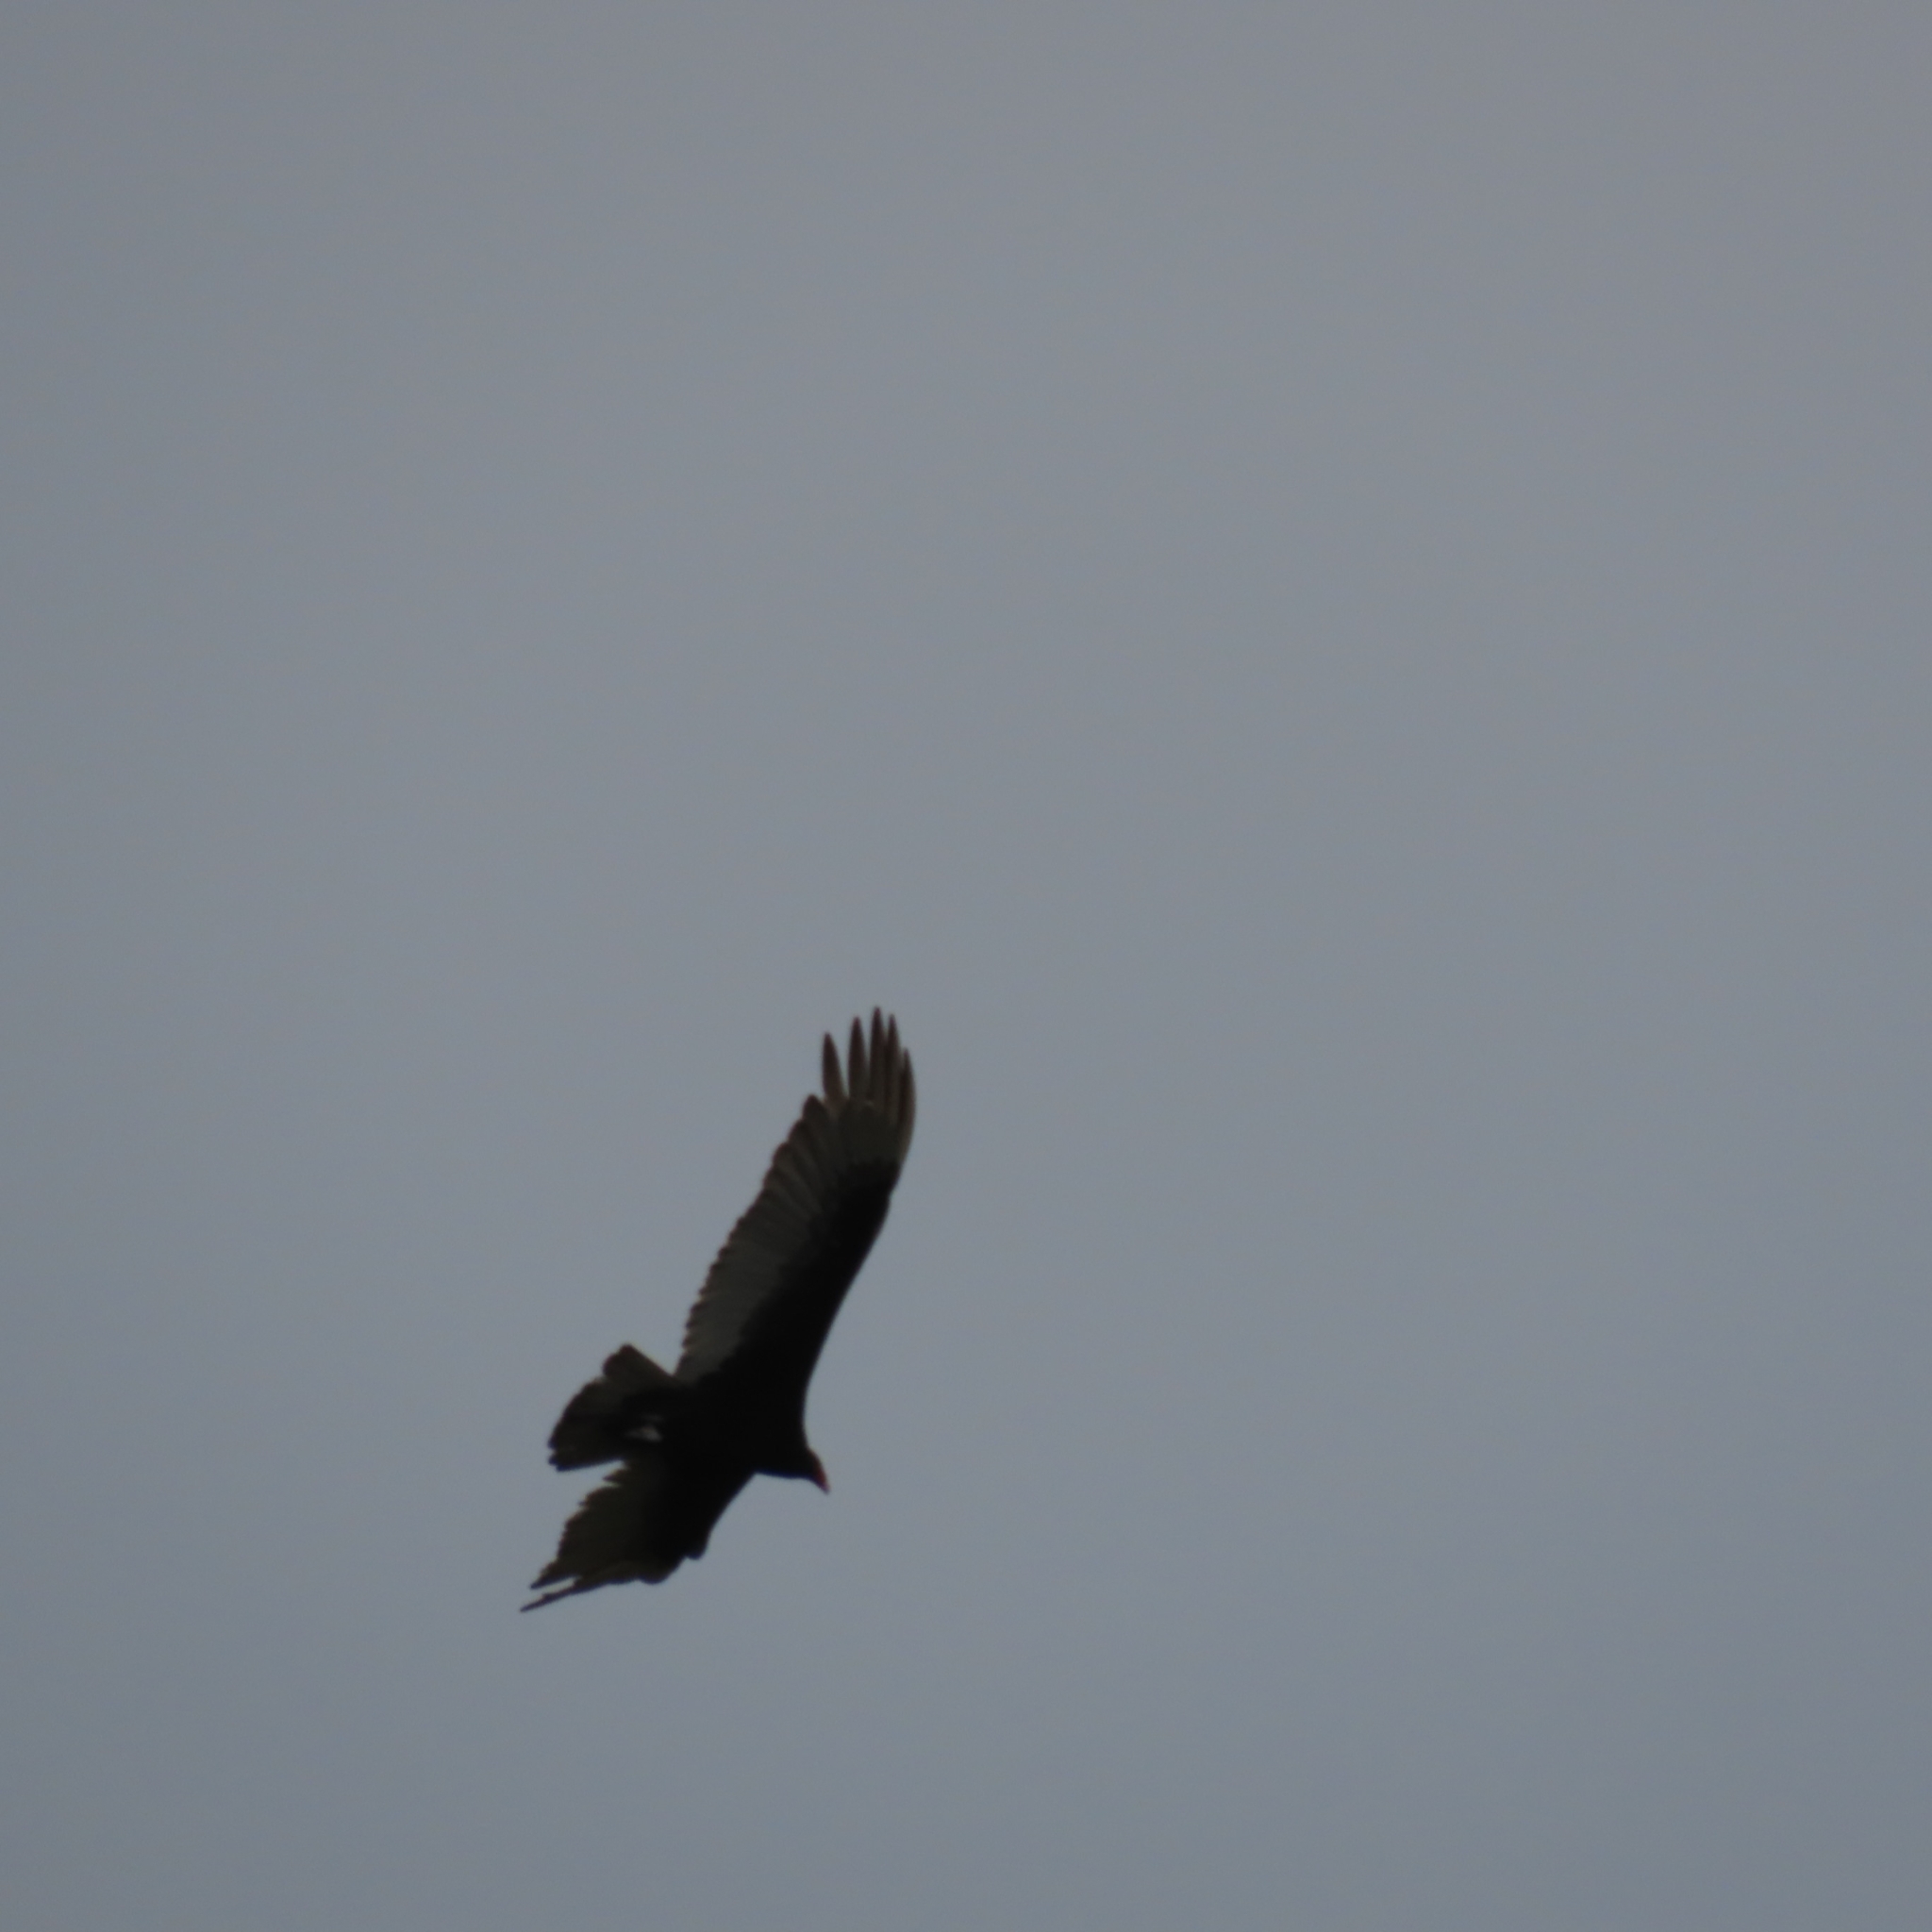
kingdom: Animalia
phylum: Chordata
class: Aves
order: Accipitriformes
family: Cathartidae
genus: Cathartes
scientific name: Cathartes aura
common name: Turkey vulture
